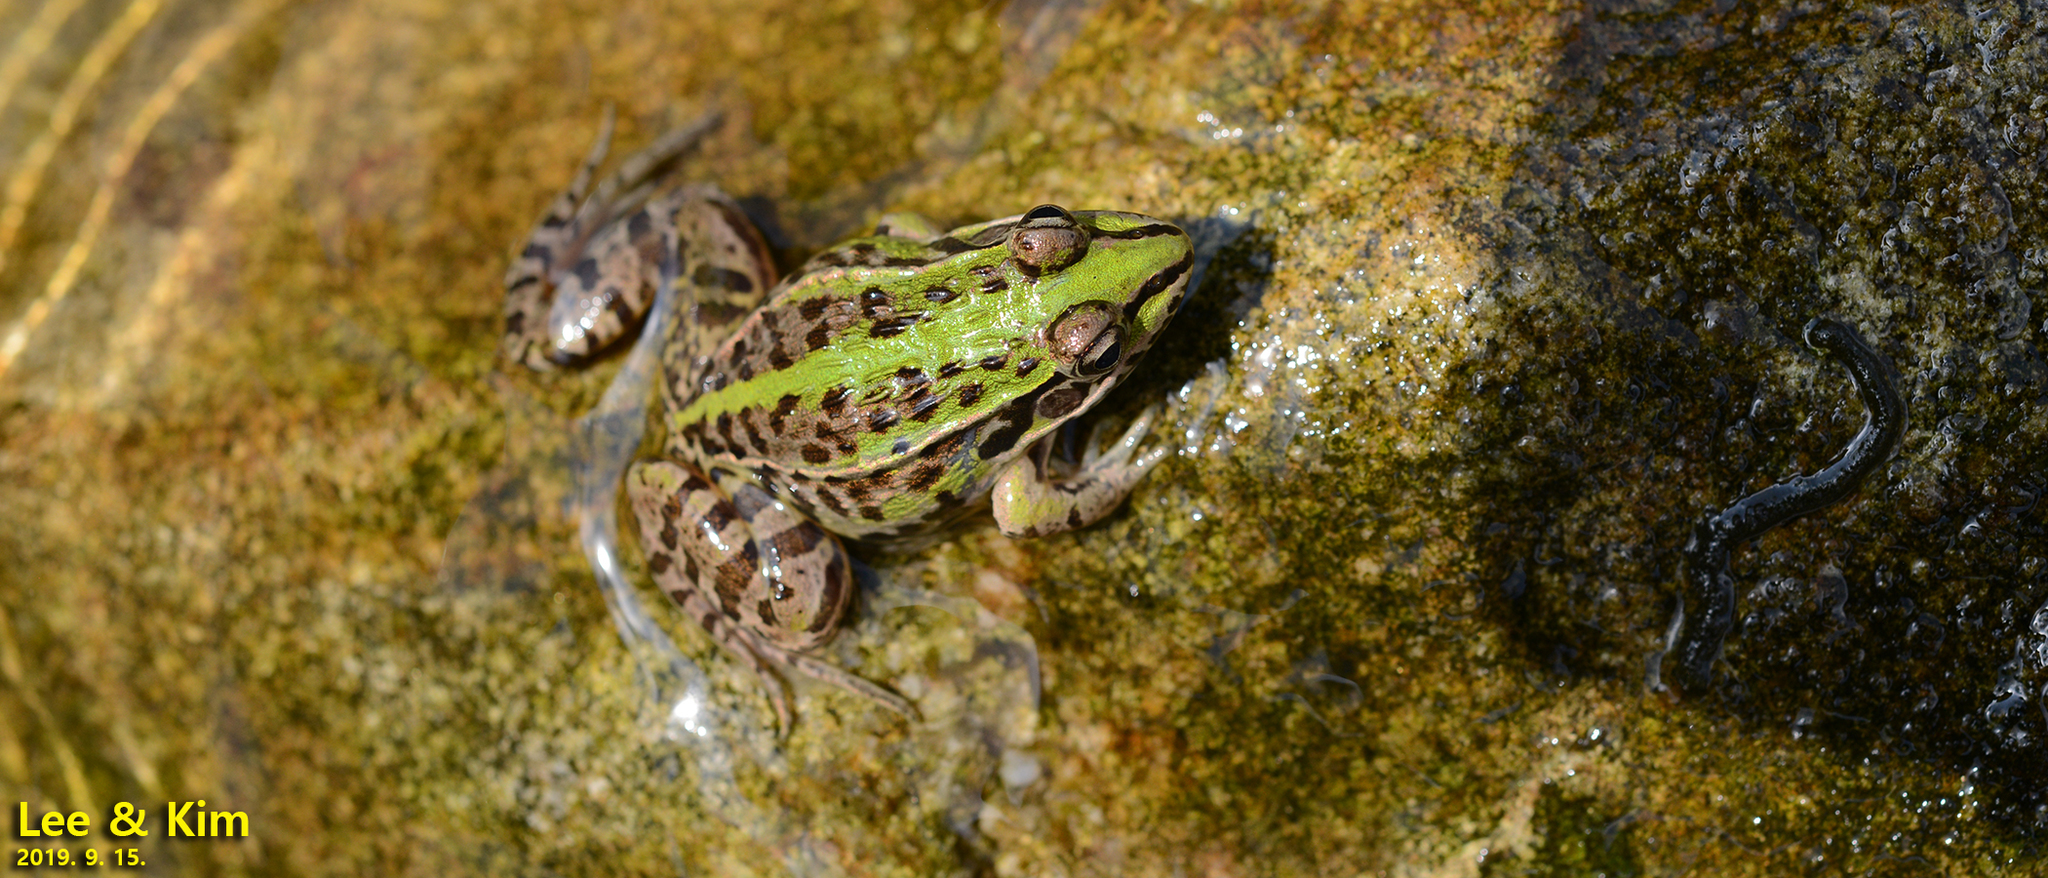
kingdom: Animalia
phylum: Chordata
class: Amphibia
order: Anura
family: Ranidae
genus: Pelophylax
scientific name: Pelophylax nigromaculatus
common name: Black-spotted pond frog
